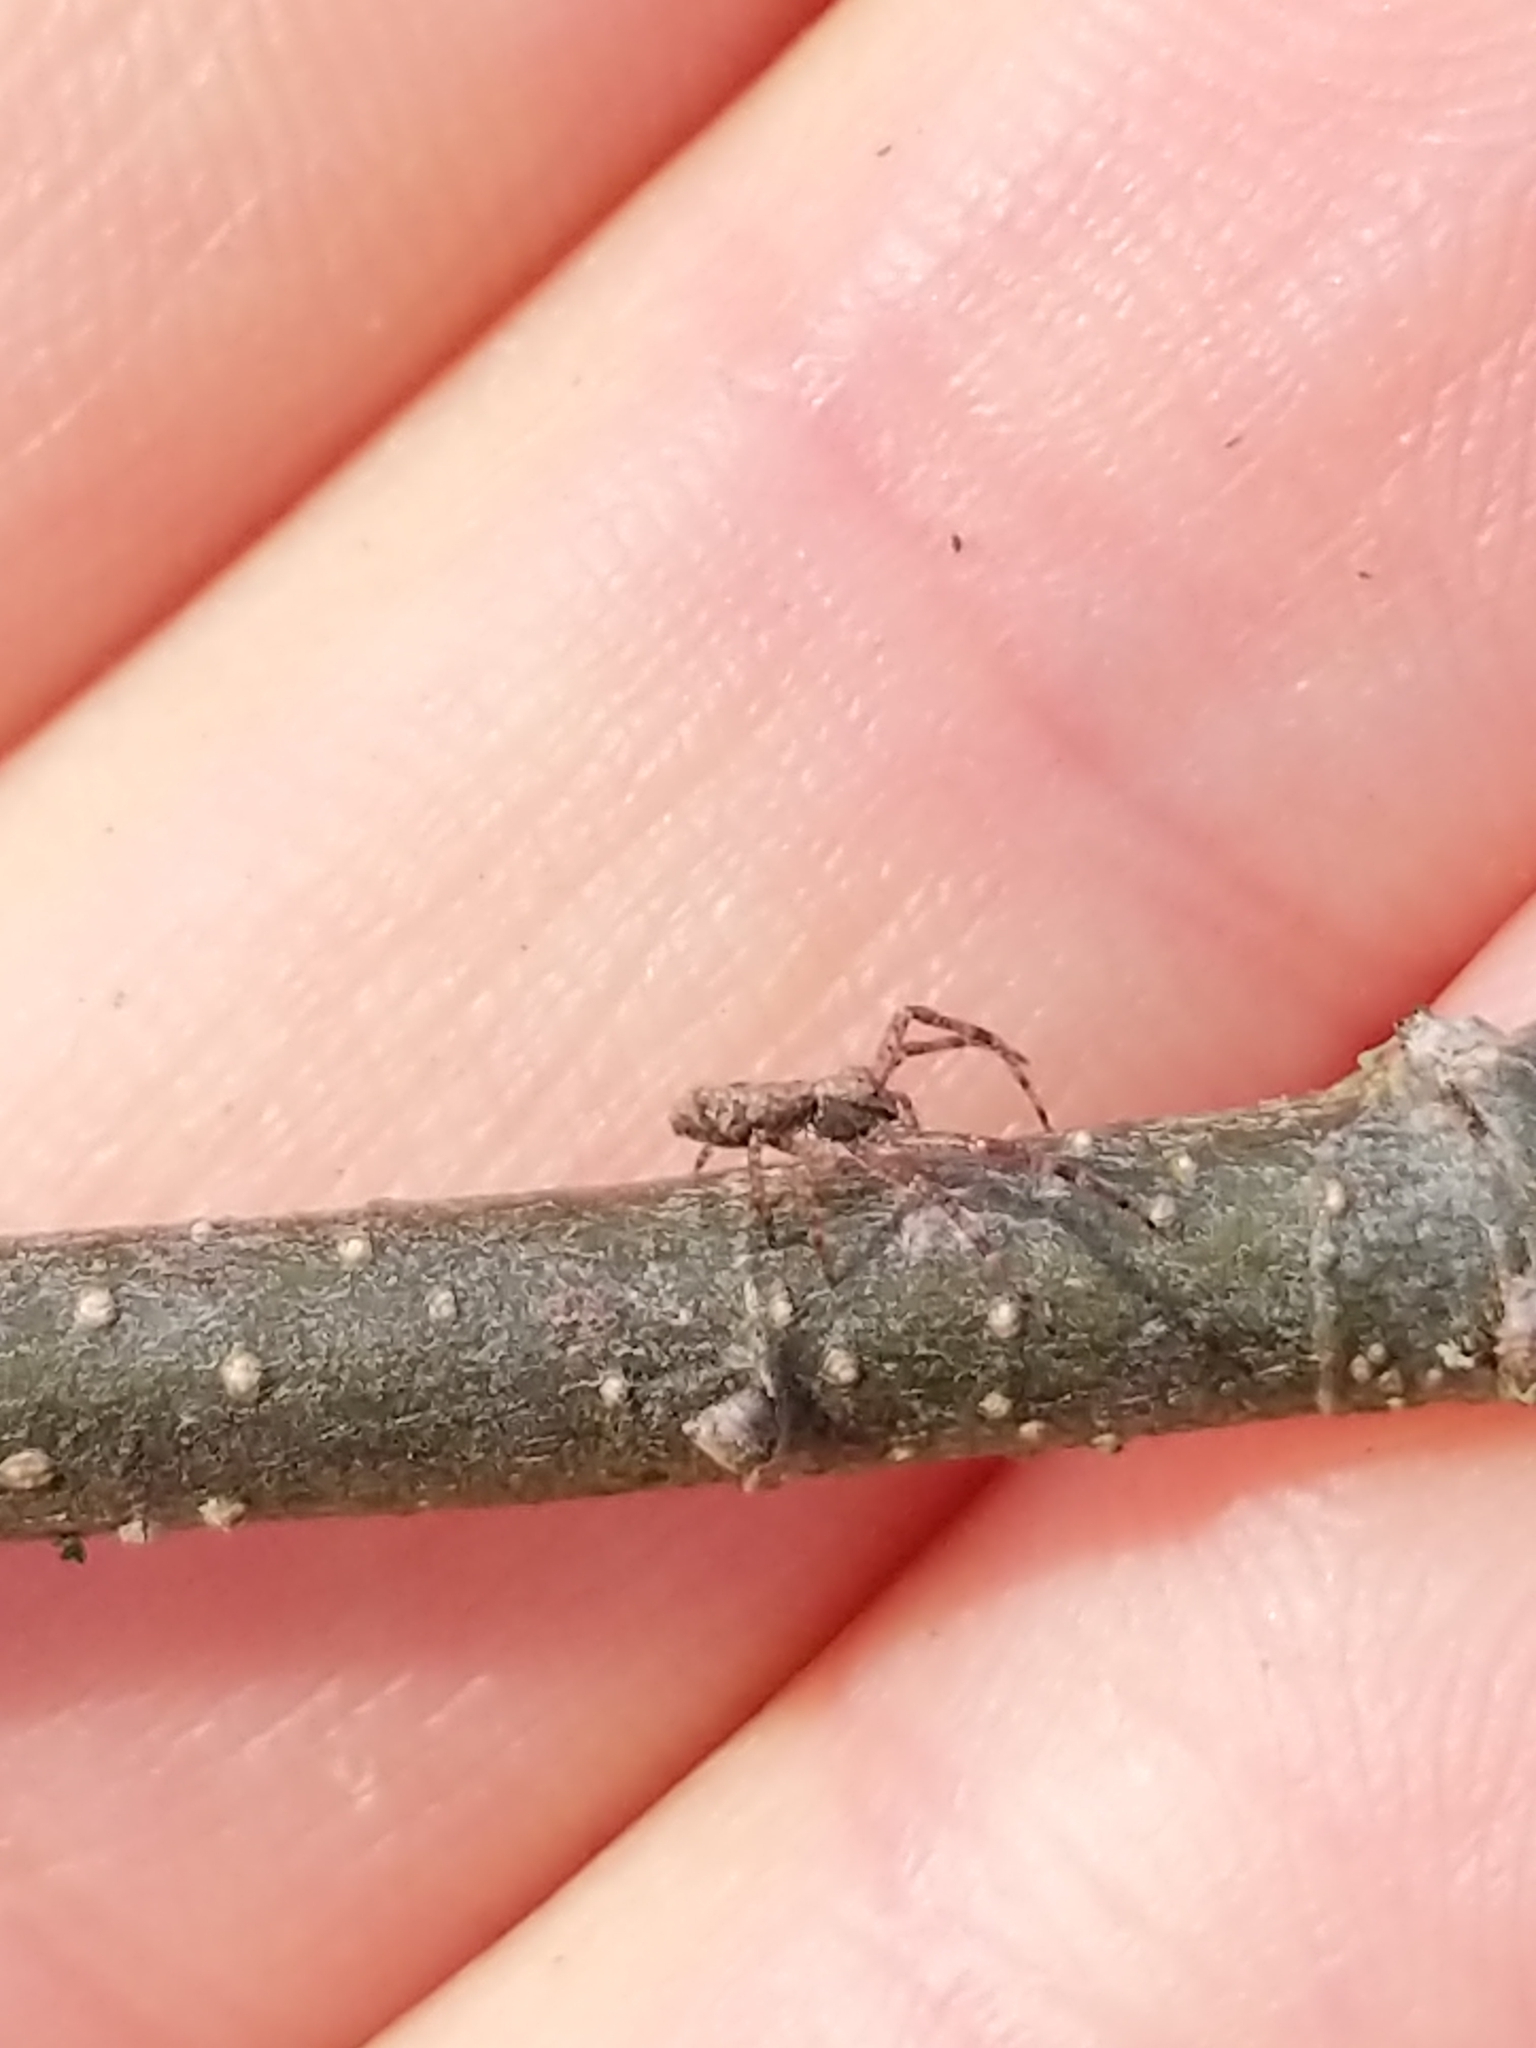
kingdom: Animalia
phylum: Arthropoda
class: Arachnida
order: Araneae
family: Thomisidae
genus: Tmarus
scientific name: Tmarus angulatus
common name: Tuberculated crab spider
